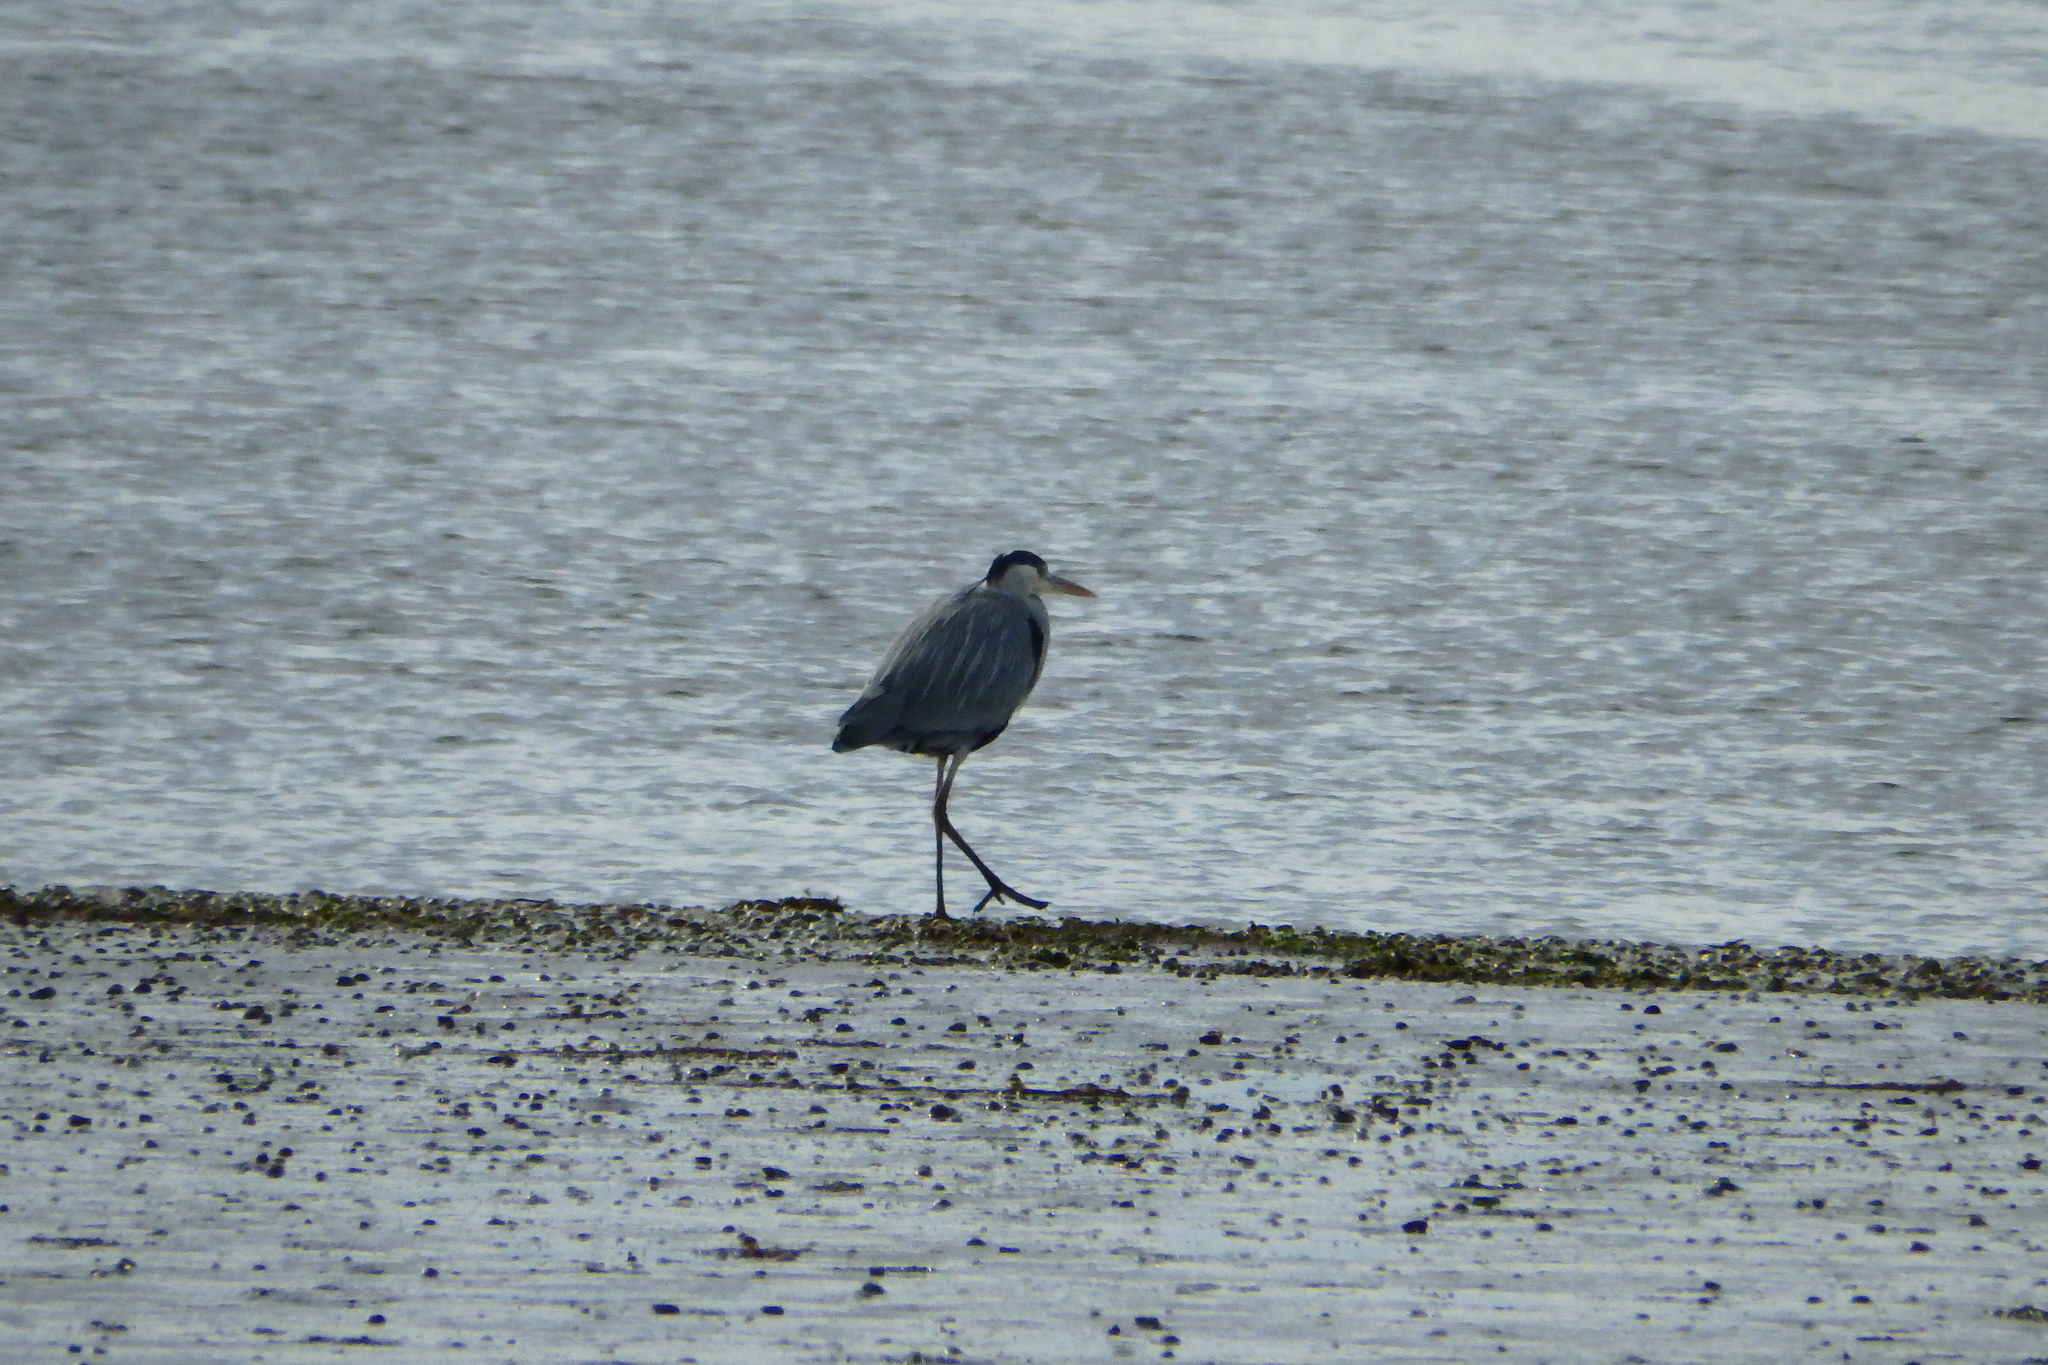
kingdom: Animalia
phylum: Chordata
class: Aves
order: Pelecaniformes
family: Ardeidae
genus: Ardea
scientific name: Ardea cinerea
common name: Grey heron
